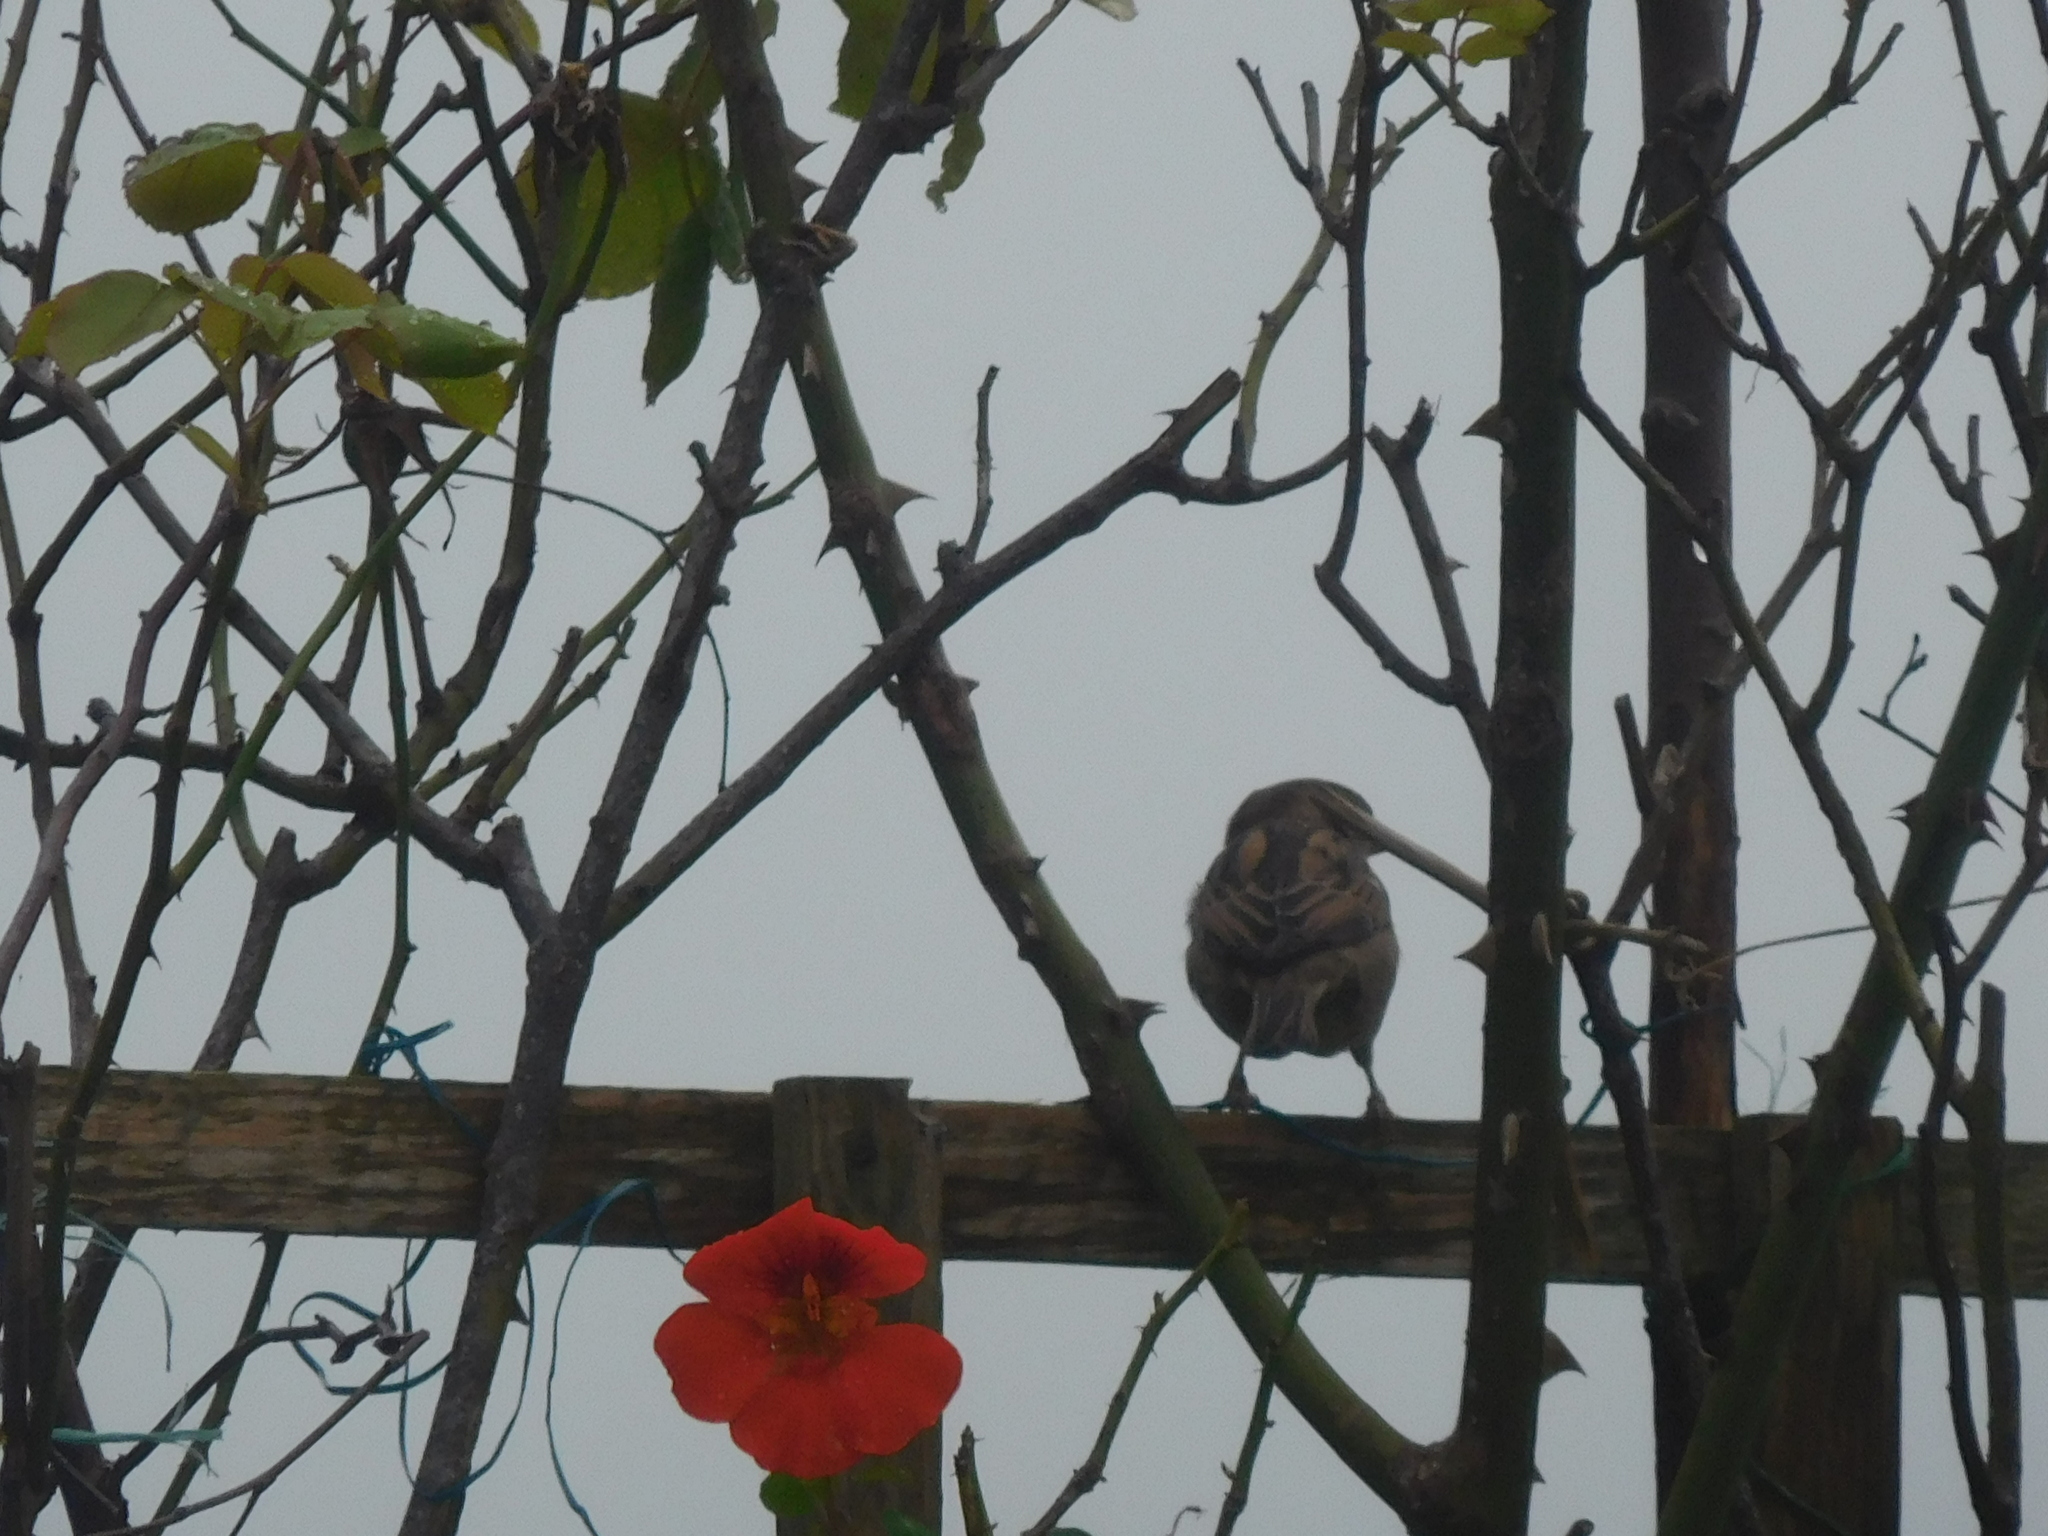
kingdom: Animalia
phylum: Chordata
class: Aves
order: Passeriformes
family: Passeridae
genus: Passer
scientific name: Passer domesticus
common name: House sparrow
